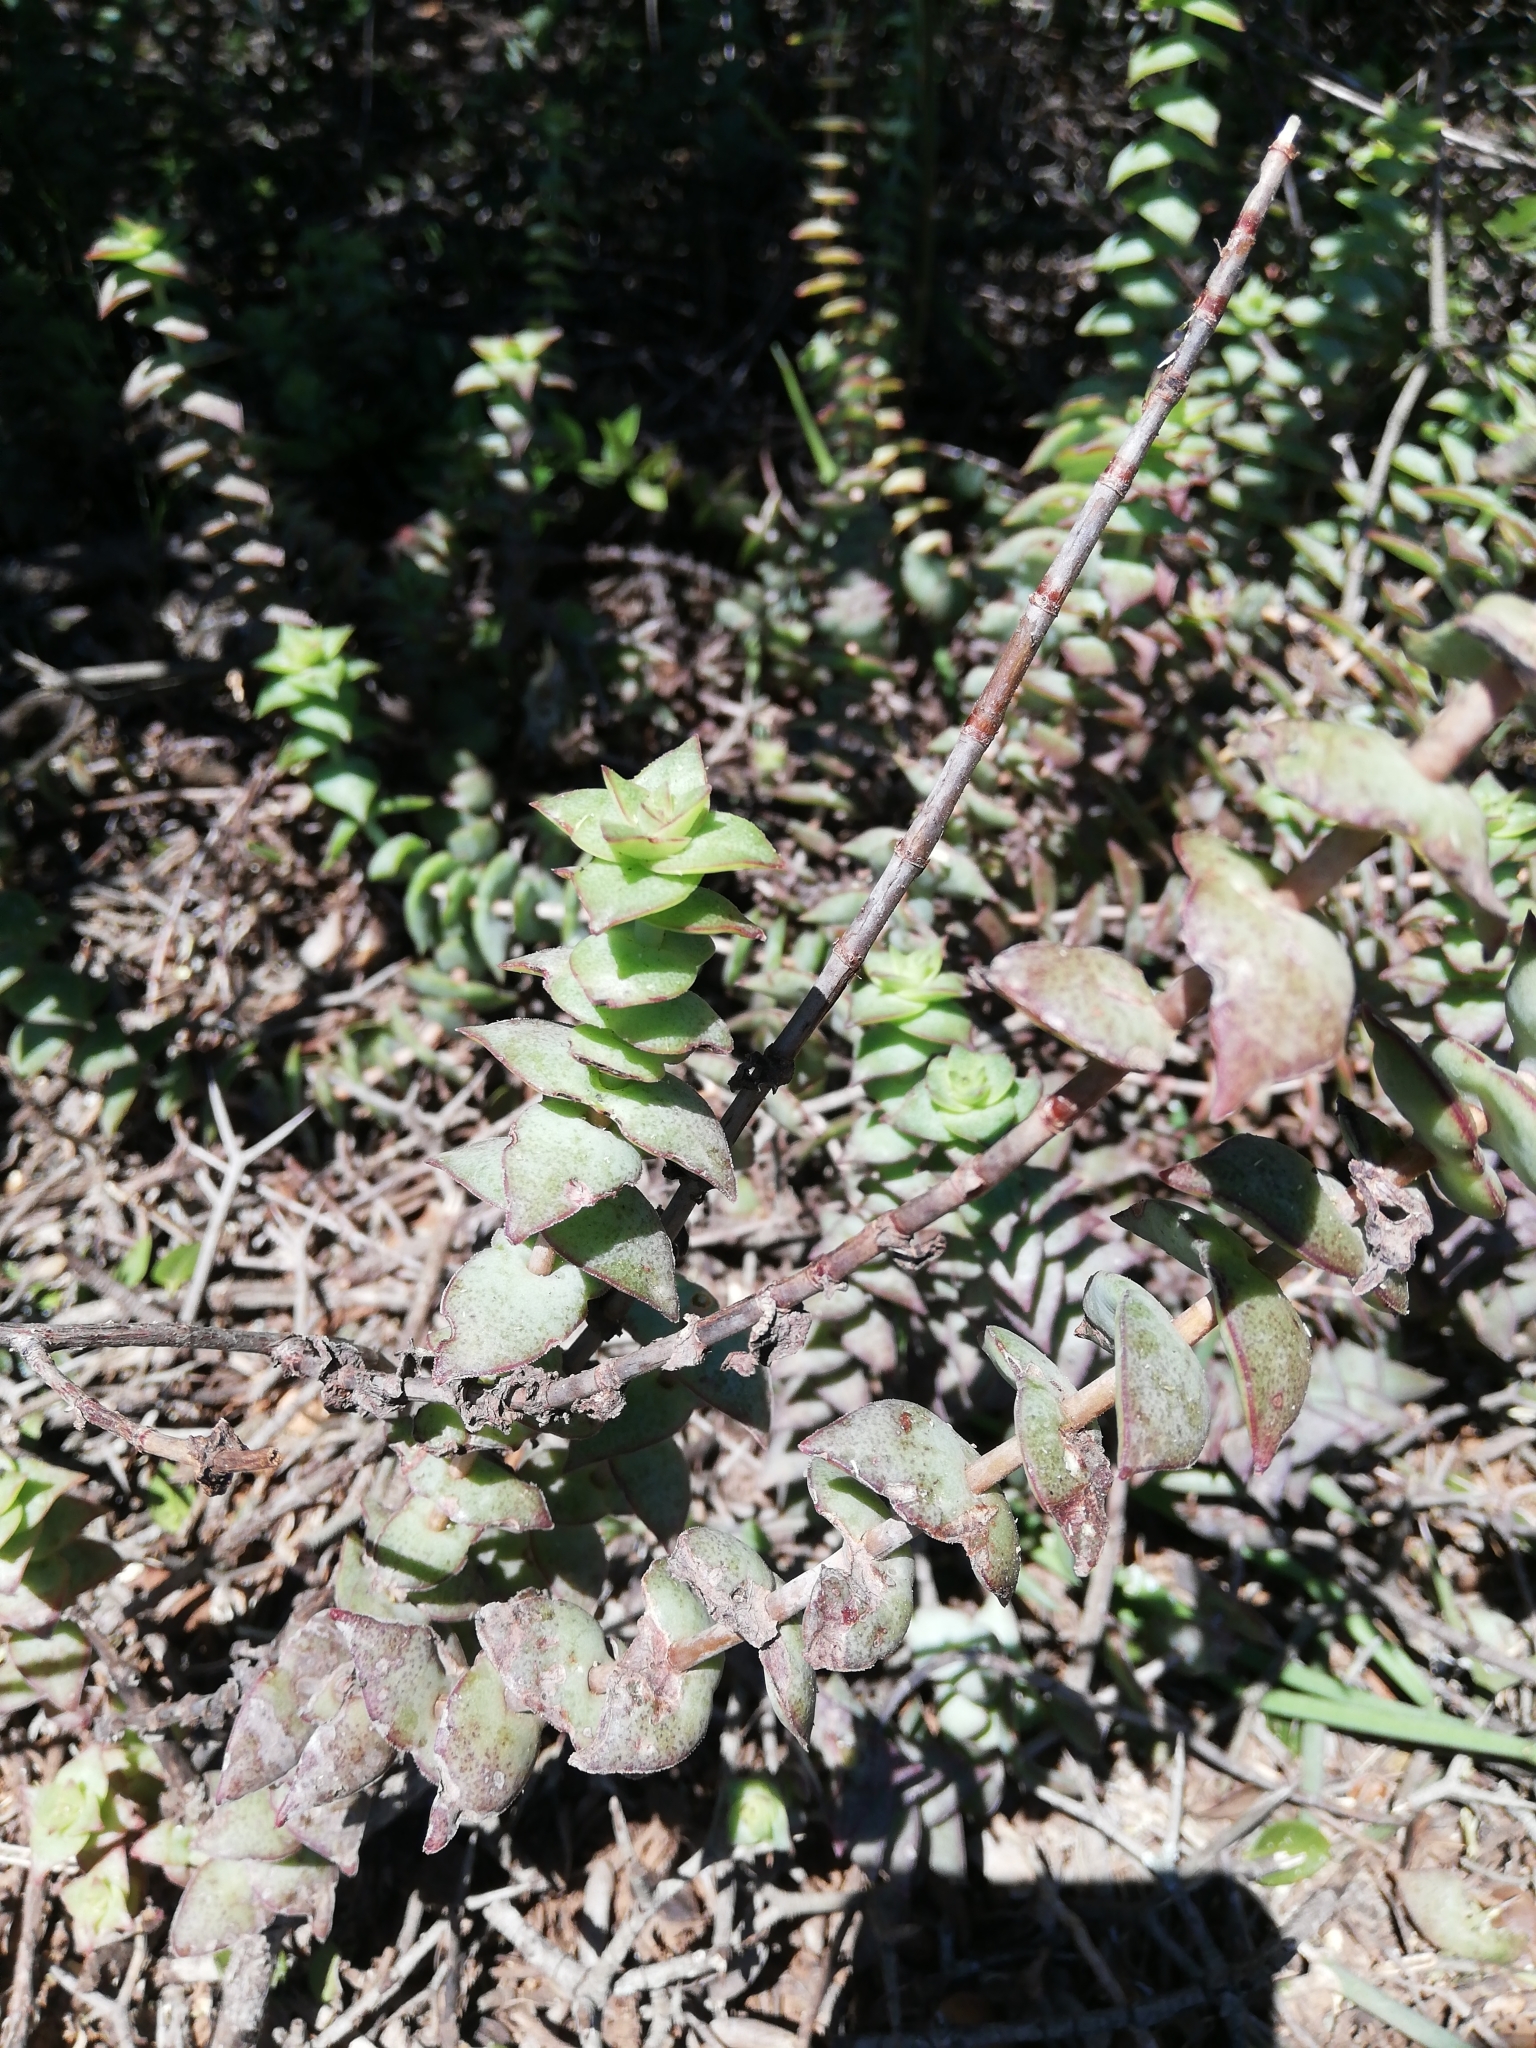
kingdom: Plantae
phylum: Tracheophyta
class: Magnoliopsida
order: Saxifragales
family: Crassulaceae
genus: Crassula
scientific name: Crassula perforata
